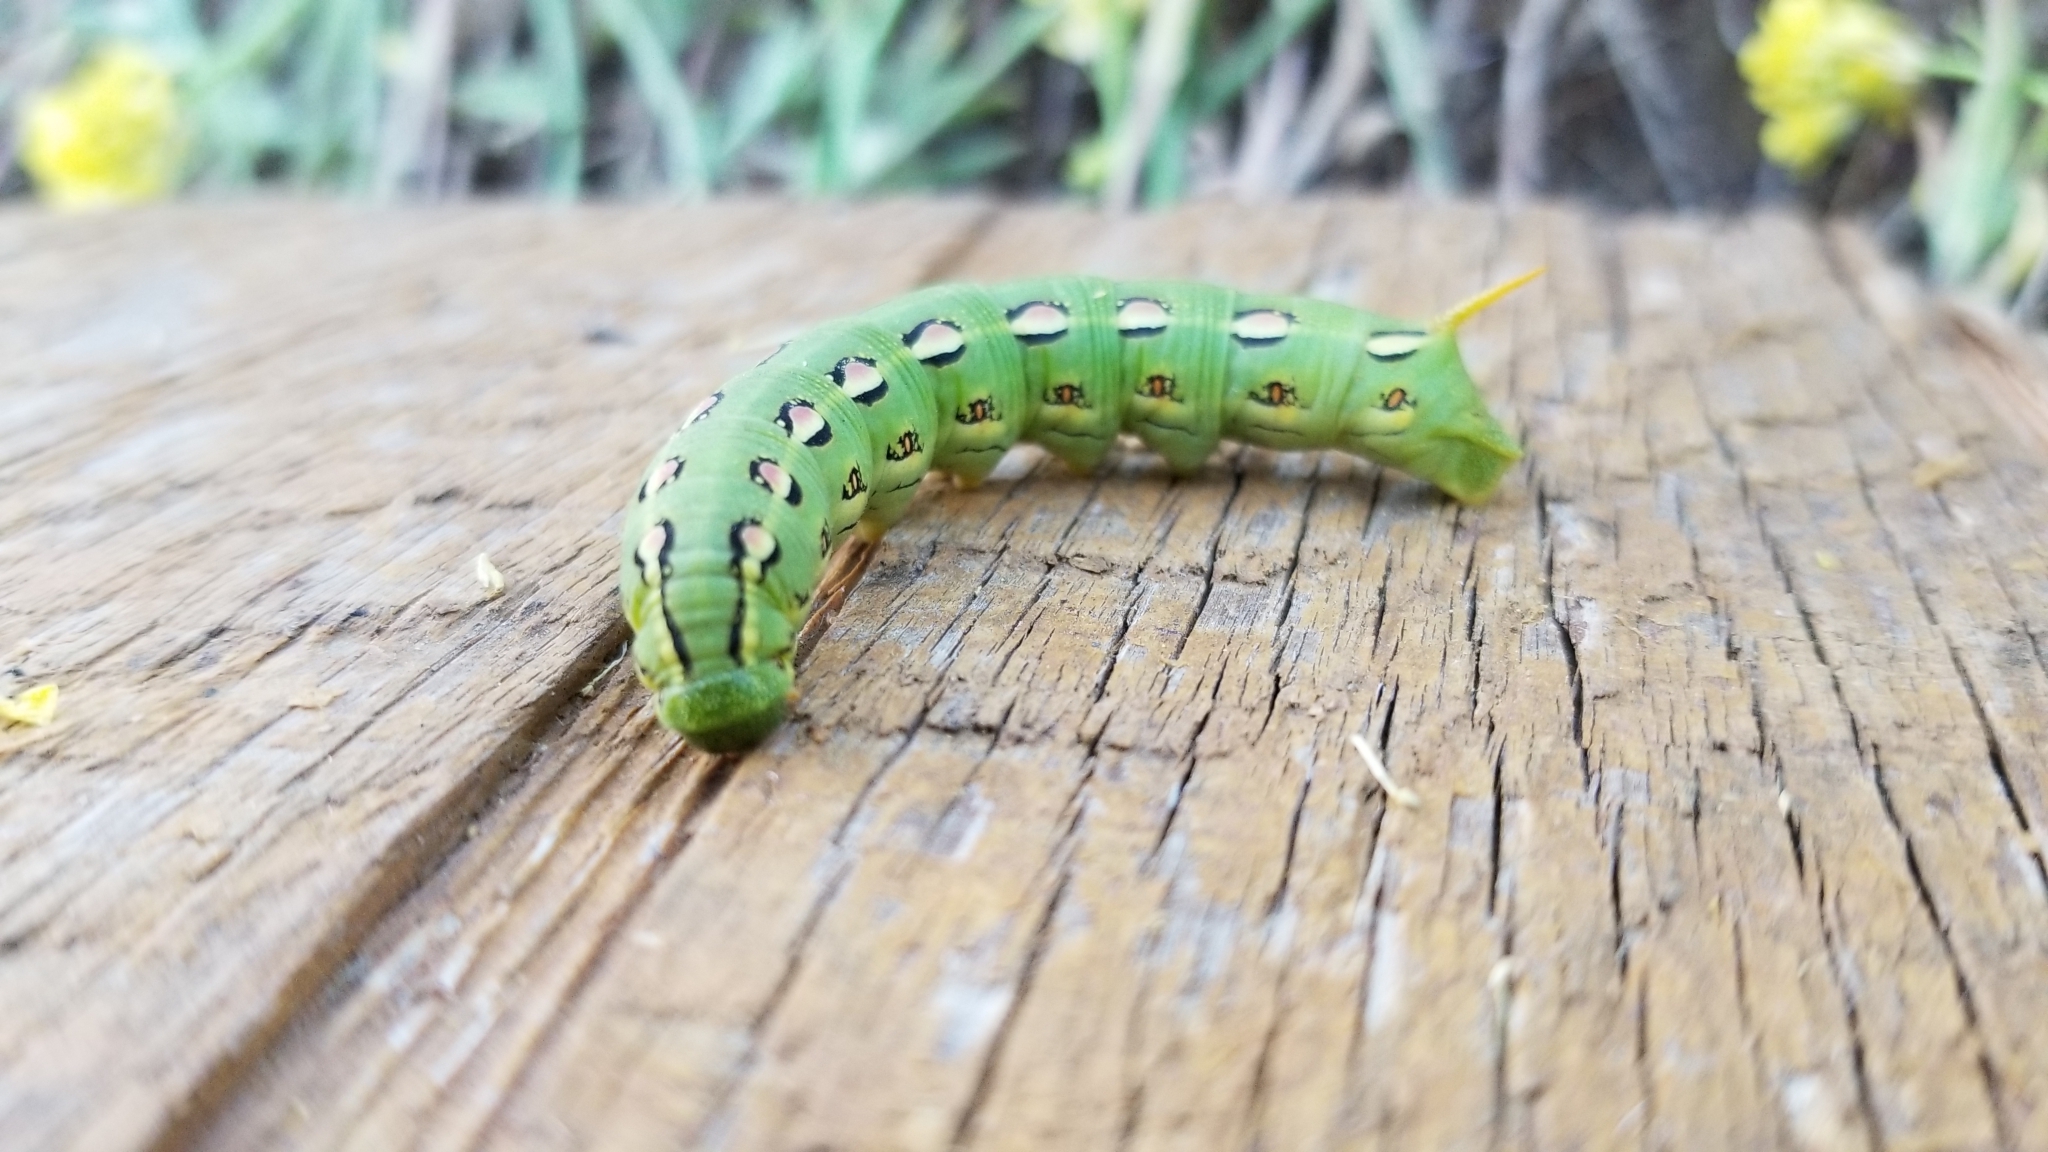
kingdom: Animalia
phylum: Arthropoda
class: Insecta
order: Lepidoptera
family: Sphingidae
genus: Hyles
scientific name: Hyles lineata
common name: White-lined sphinx
